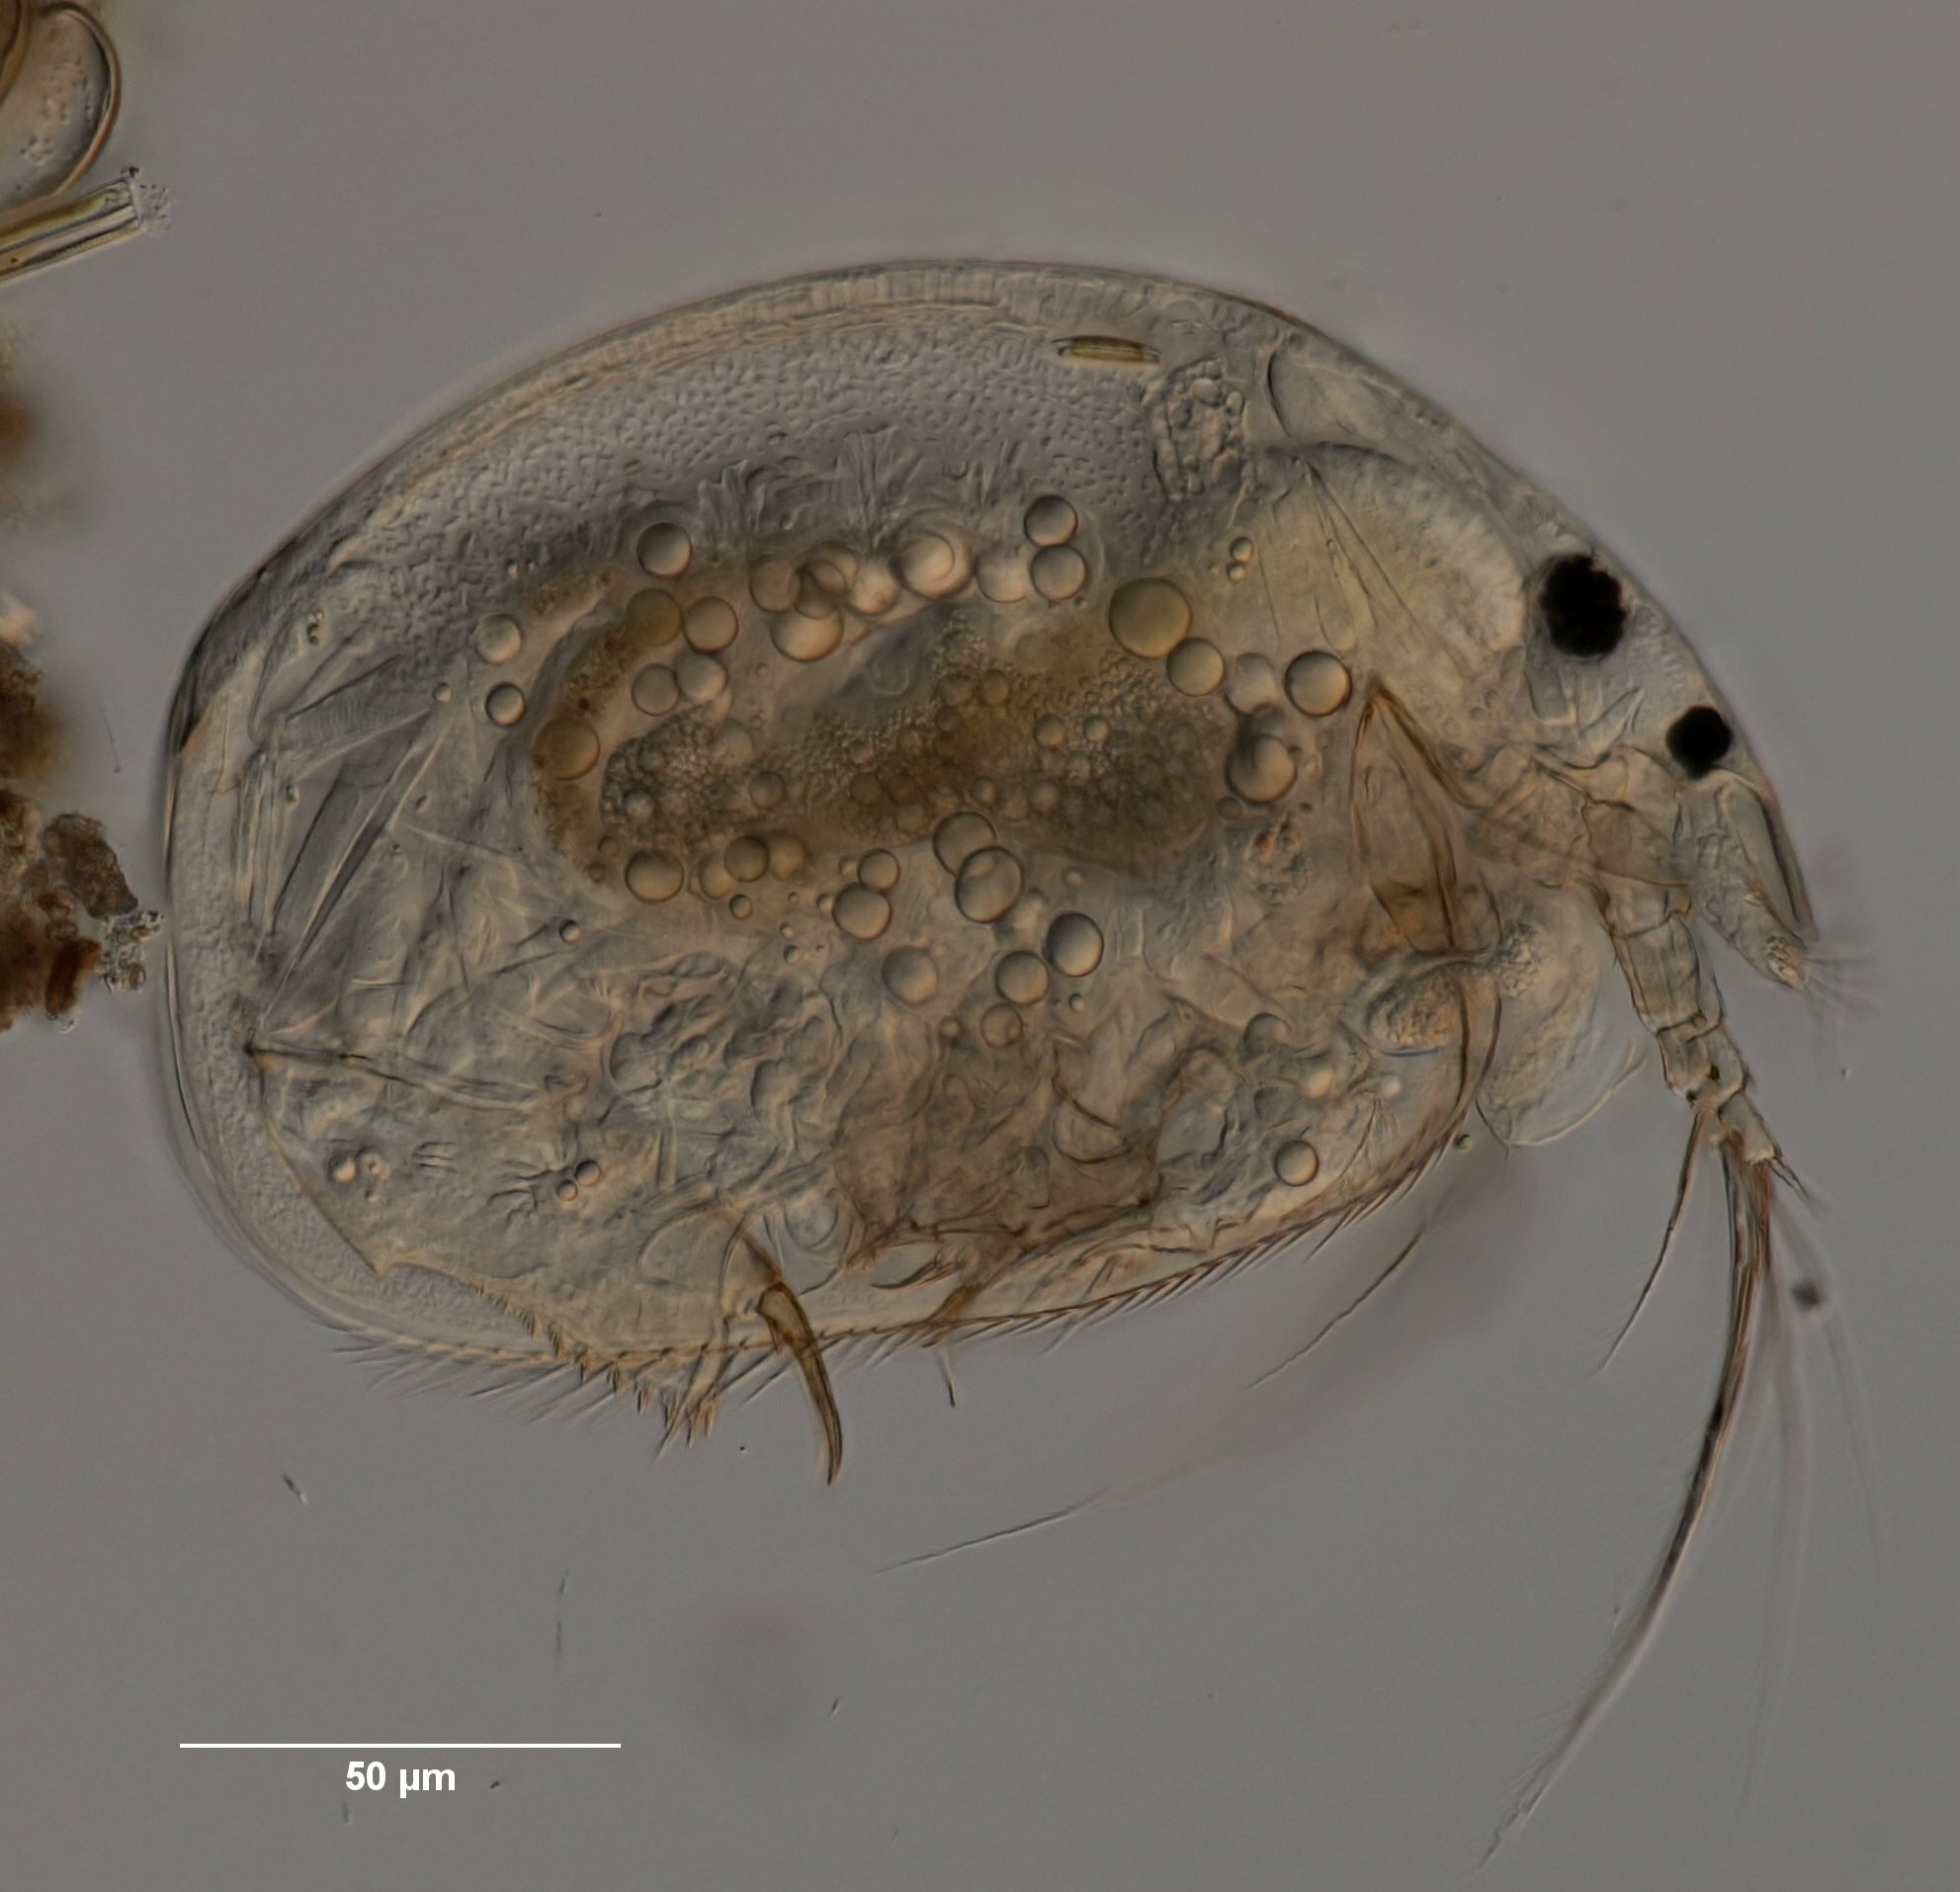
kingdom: Animalia
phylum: Arthropoda
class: Branchiopoda
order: Diplostraca
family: Chydoridae
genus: Alona
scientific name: Alona guttata
